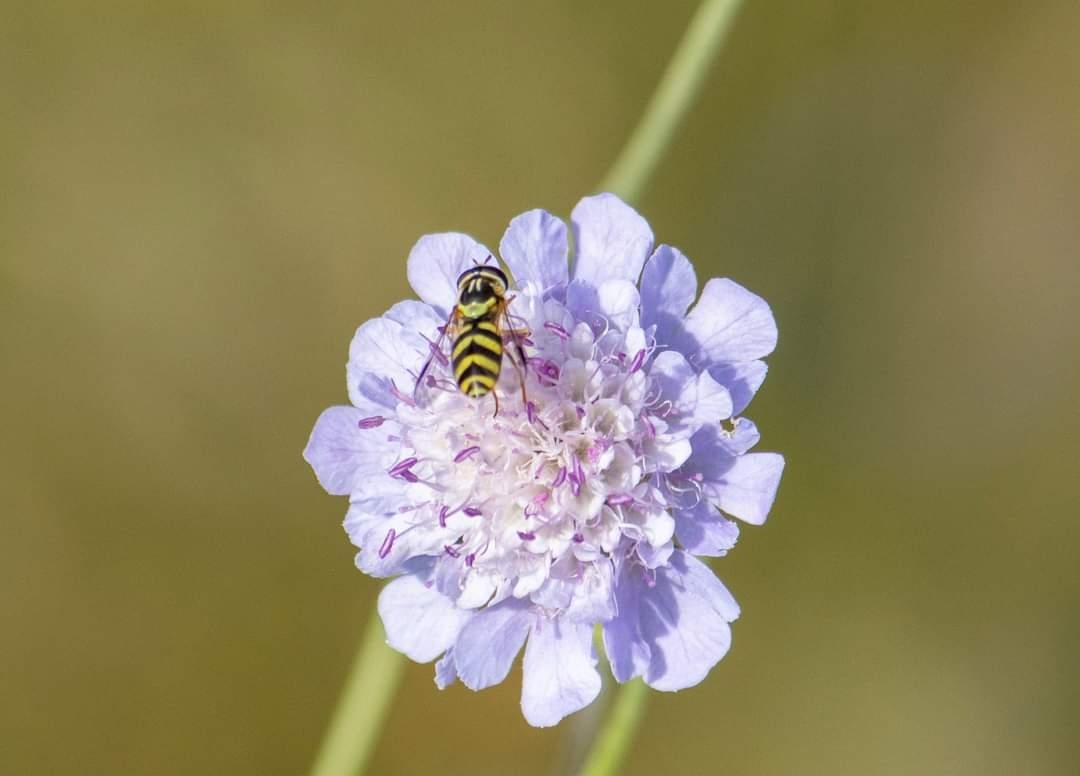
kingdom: Animalia
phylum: Arthropoda
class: Insecta
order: Diptera
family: Syrphidae
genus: Dasysyrphus
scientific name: Dasysyrphus albostriatus
